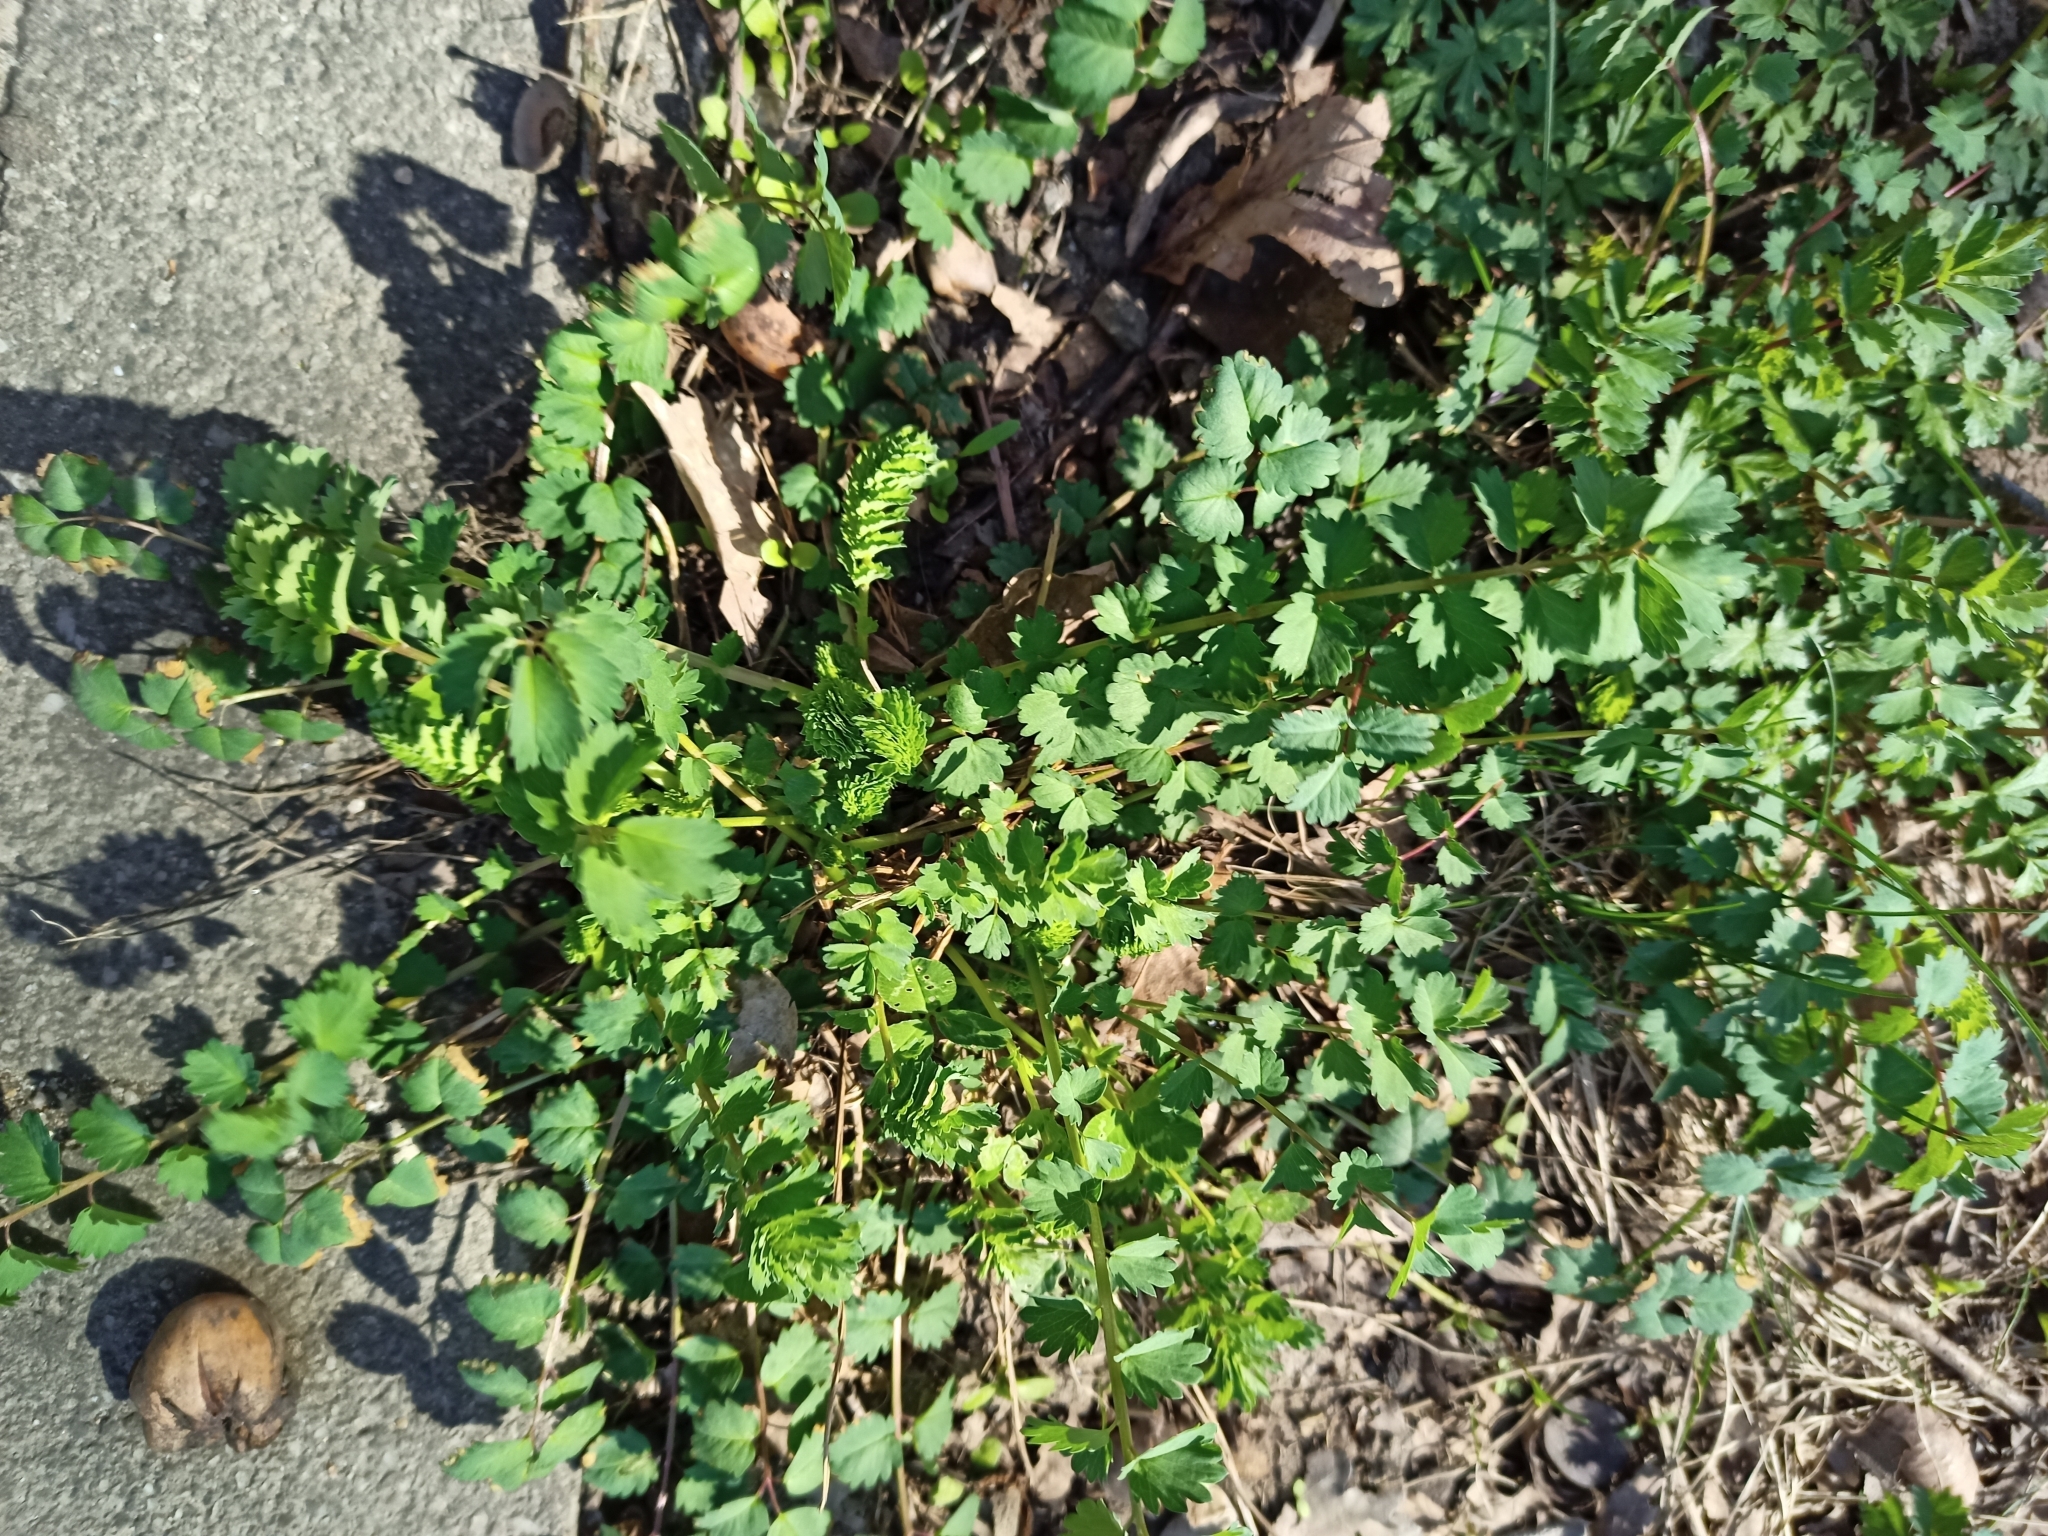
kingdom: Plantae
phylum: Tracheophyta
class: Magnoliopsida
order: Rosales
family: Rosaceae
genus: Poterium
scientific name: Poterium sanguisorba
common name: Salad burnet
